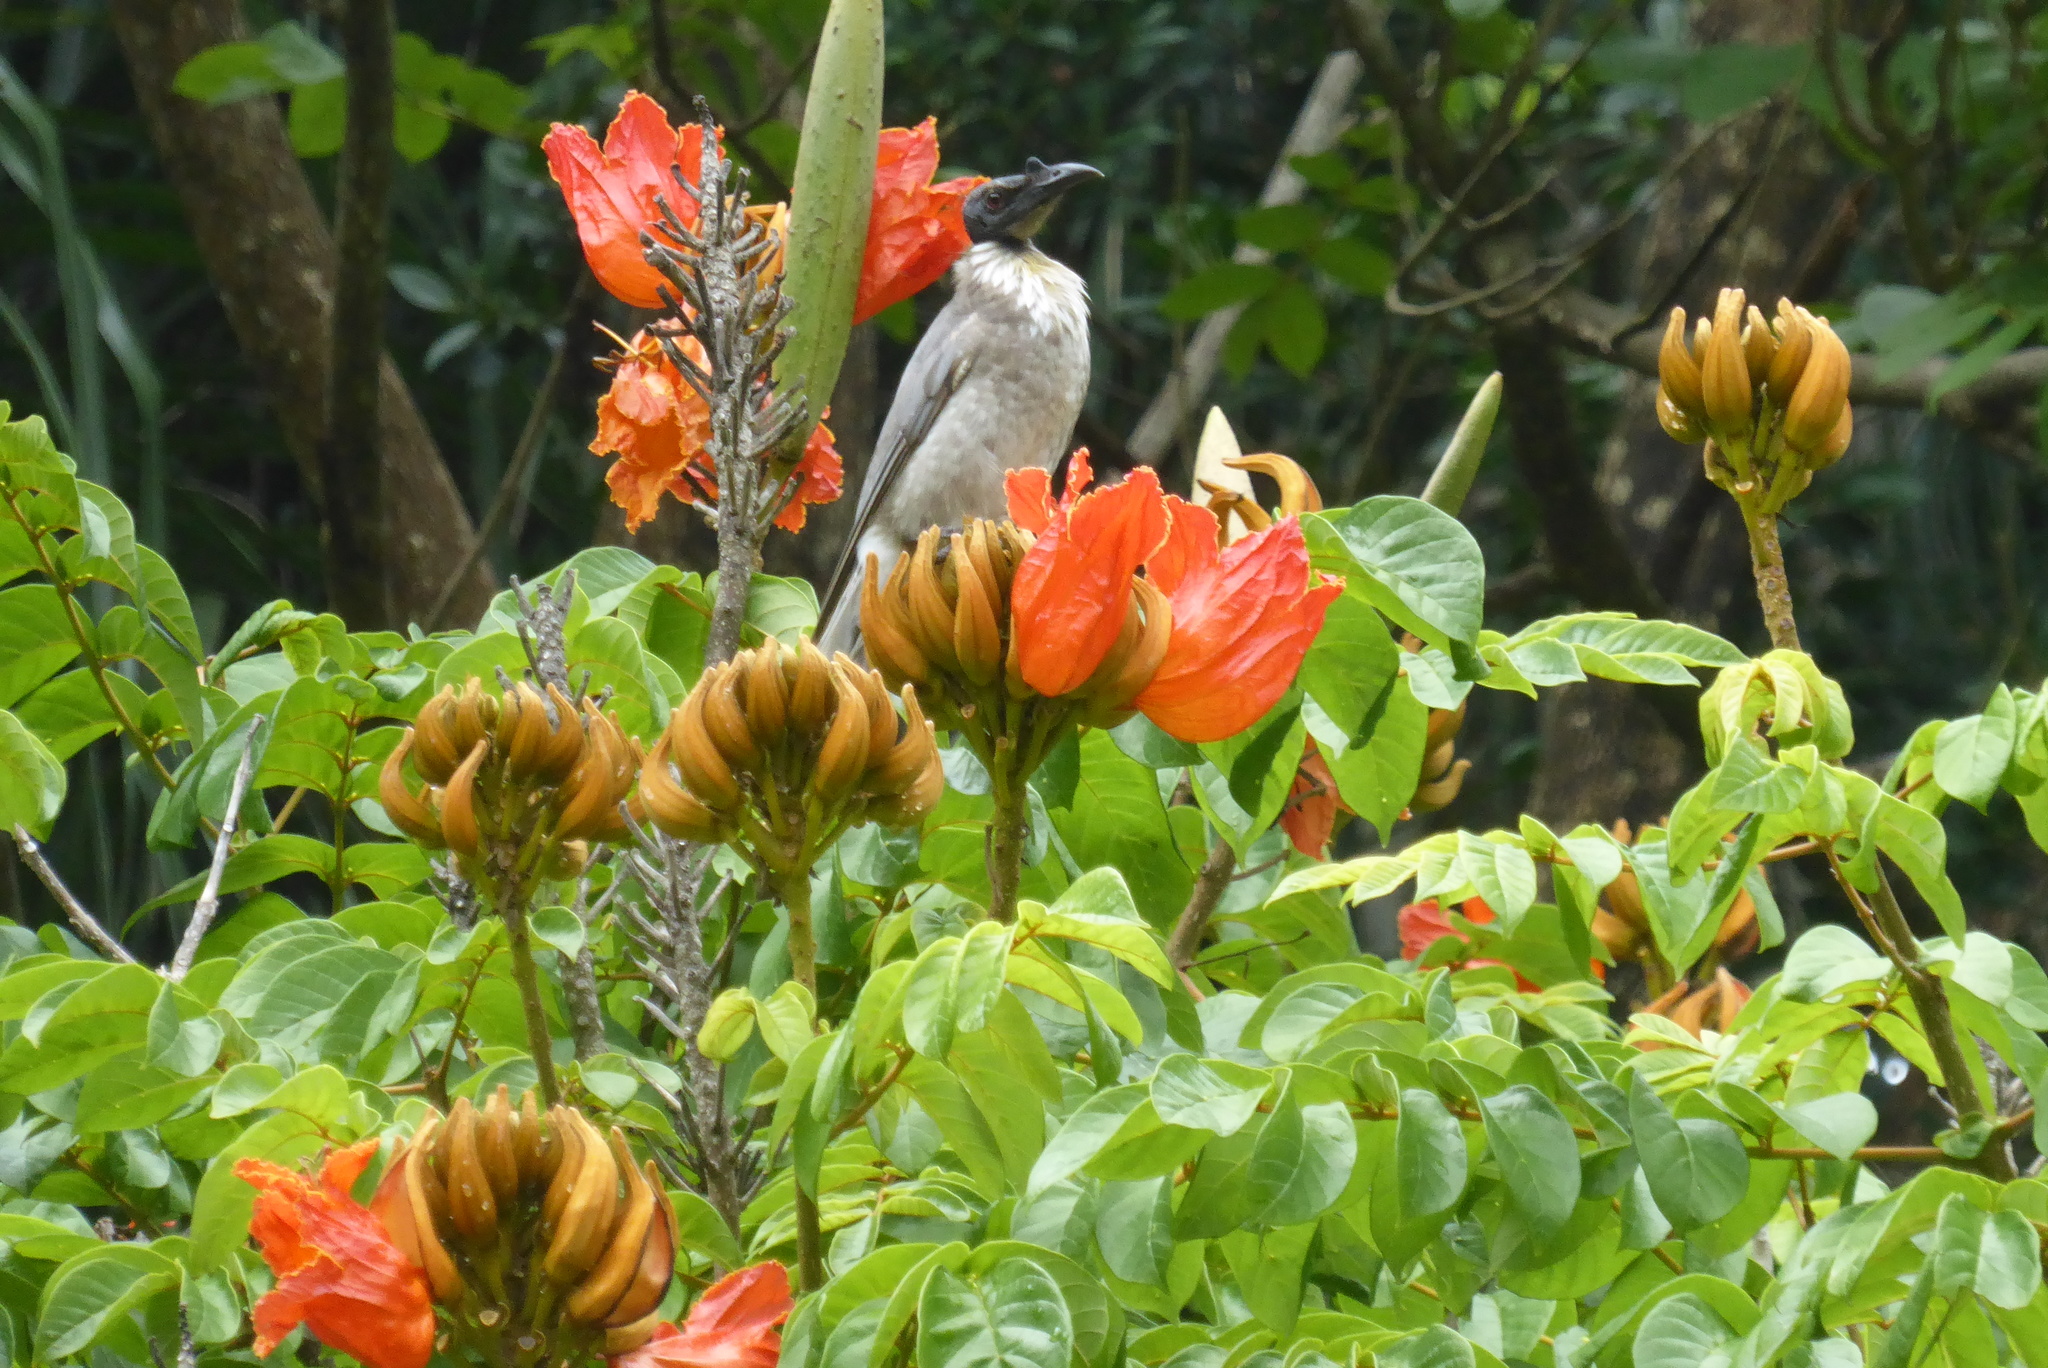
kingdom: Animalia
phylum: Chordata
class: Aves
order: Passeriformes
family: Meliphagidae
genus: Philemon
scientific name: Philemon corniculatus
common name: Noisy friarbird
